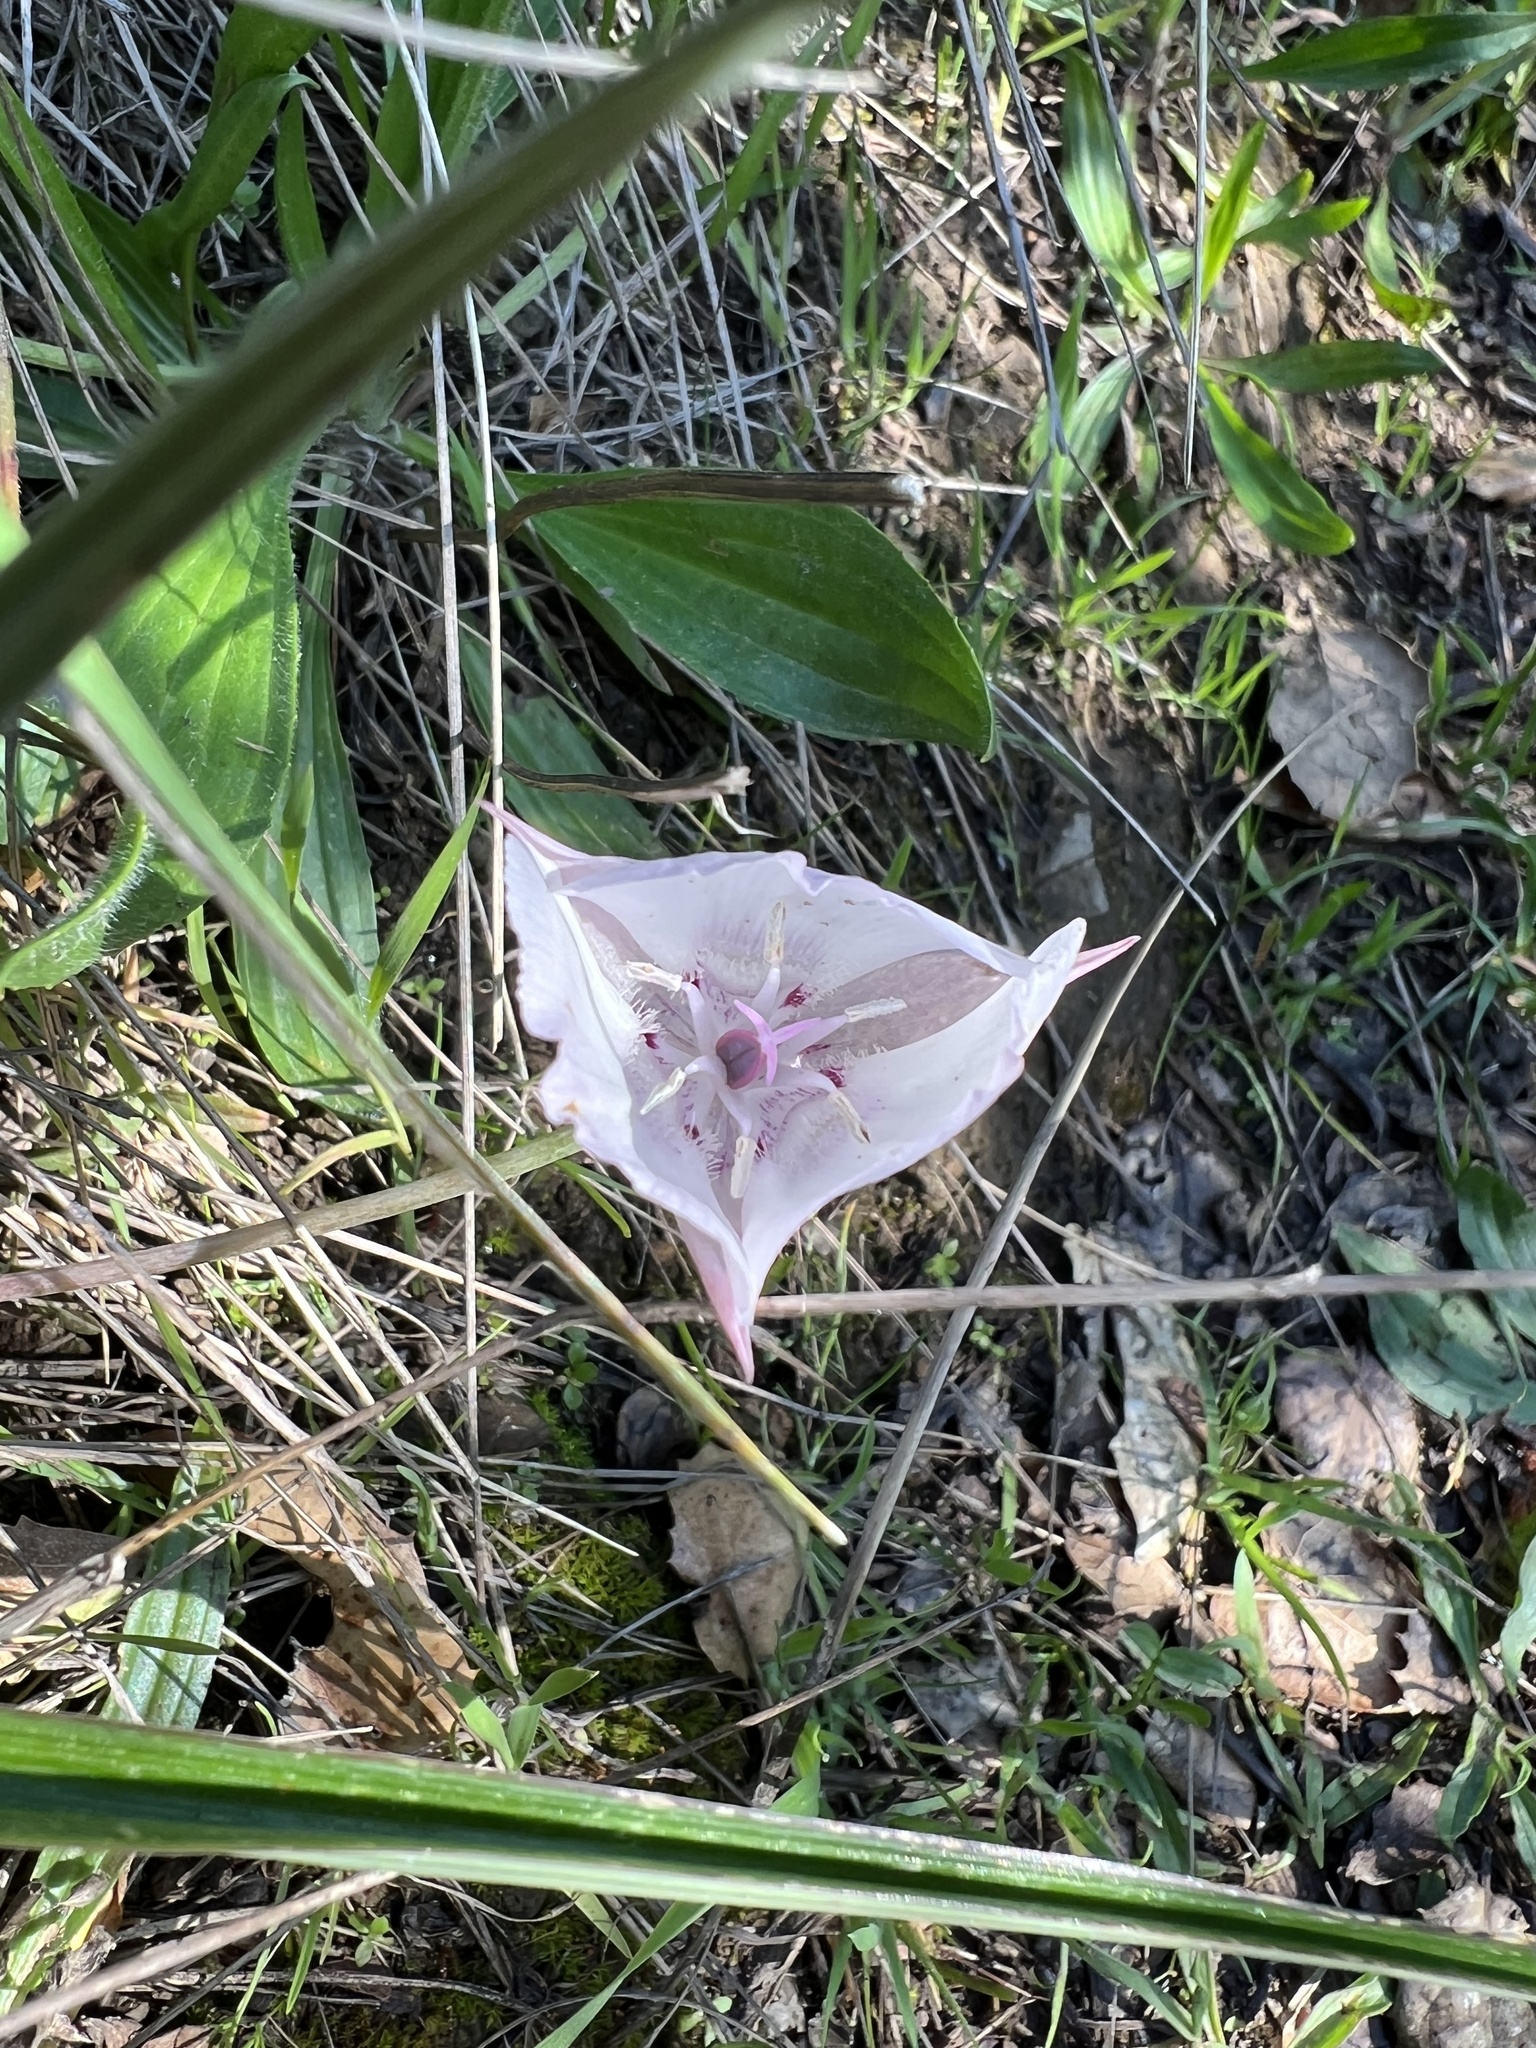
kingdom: Plantae
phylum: Tracheophyta
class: Liliopsida
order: Liliales
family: Liliaceae
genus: Calochortus
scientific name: Calochortus umbellatus
